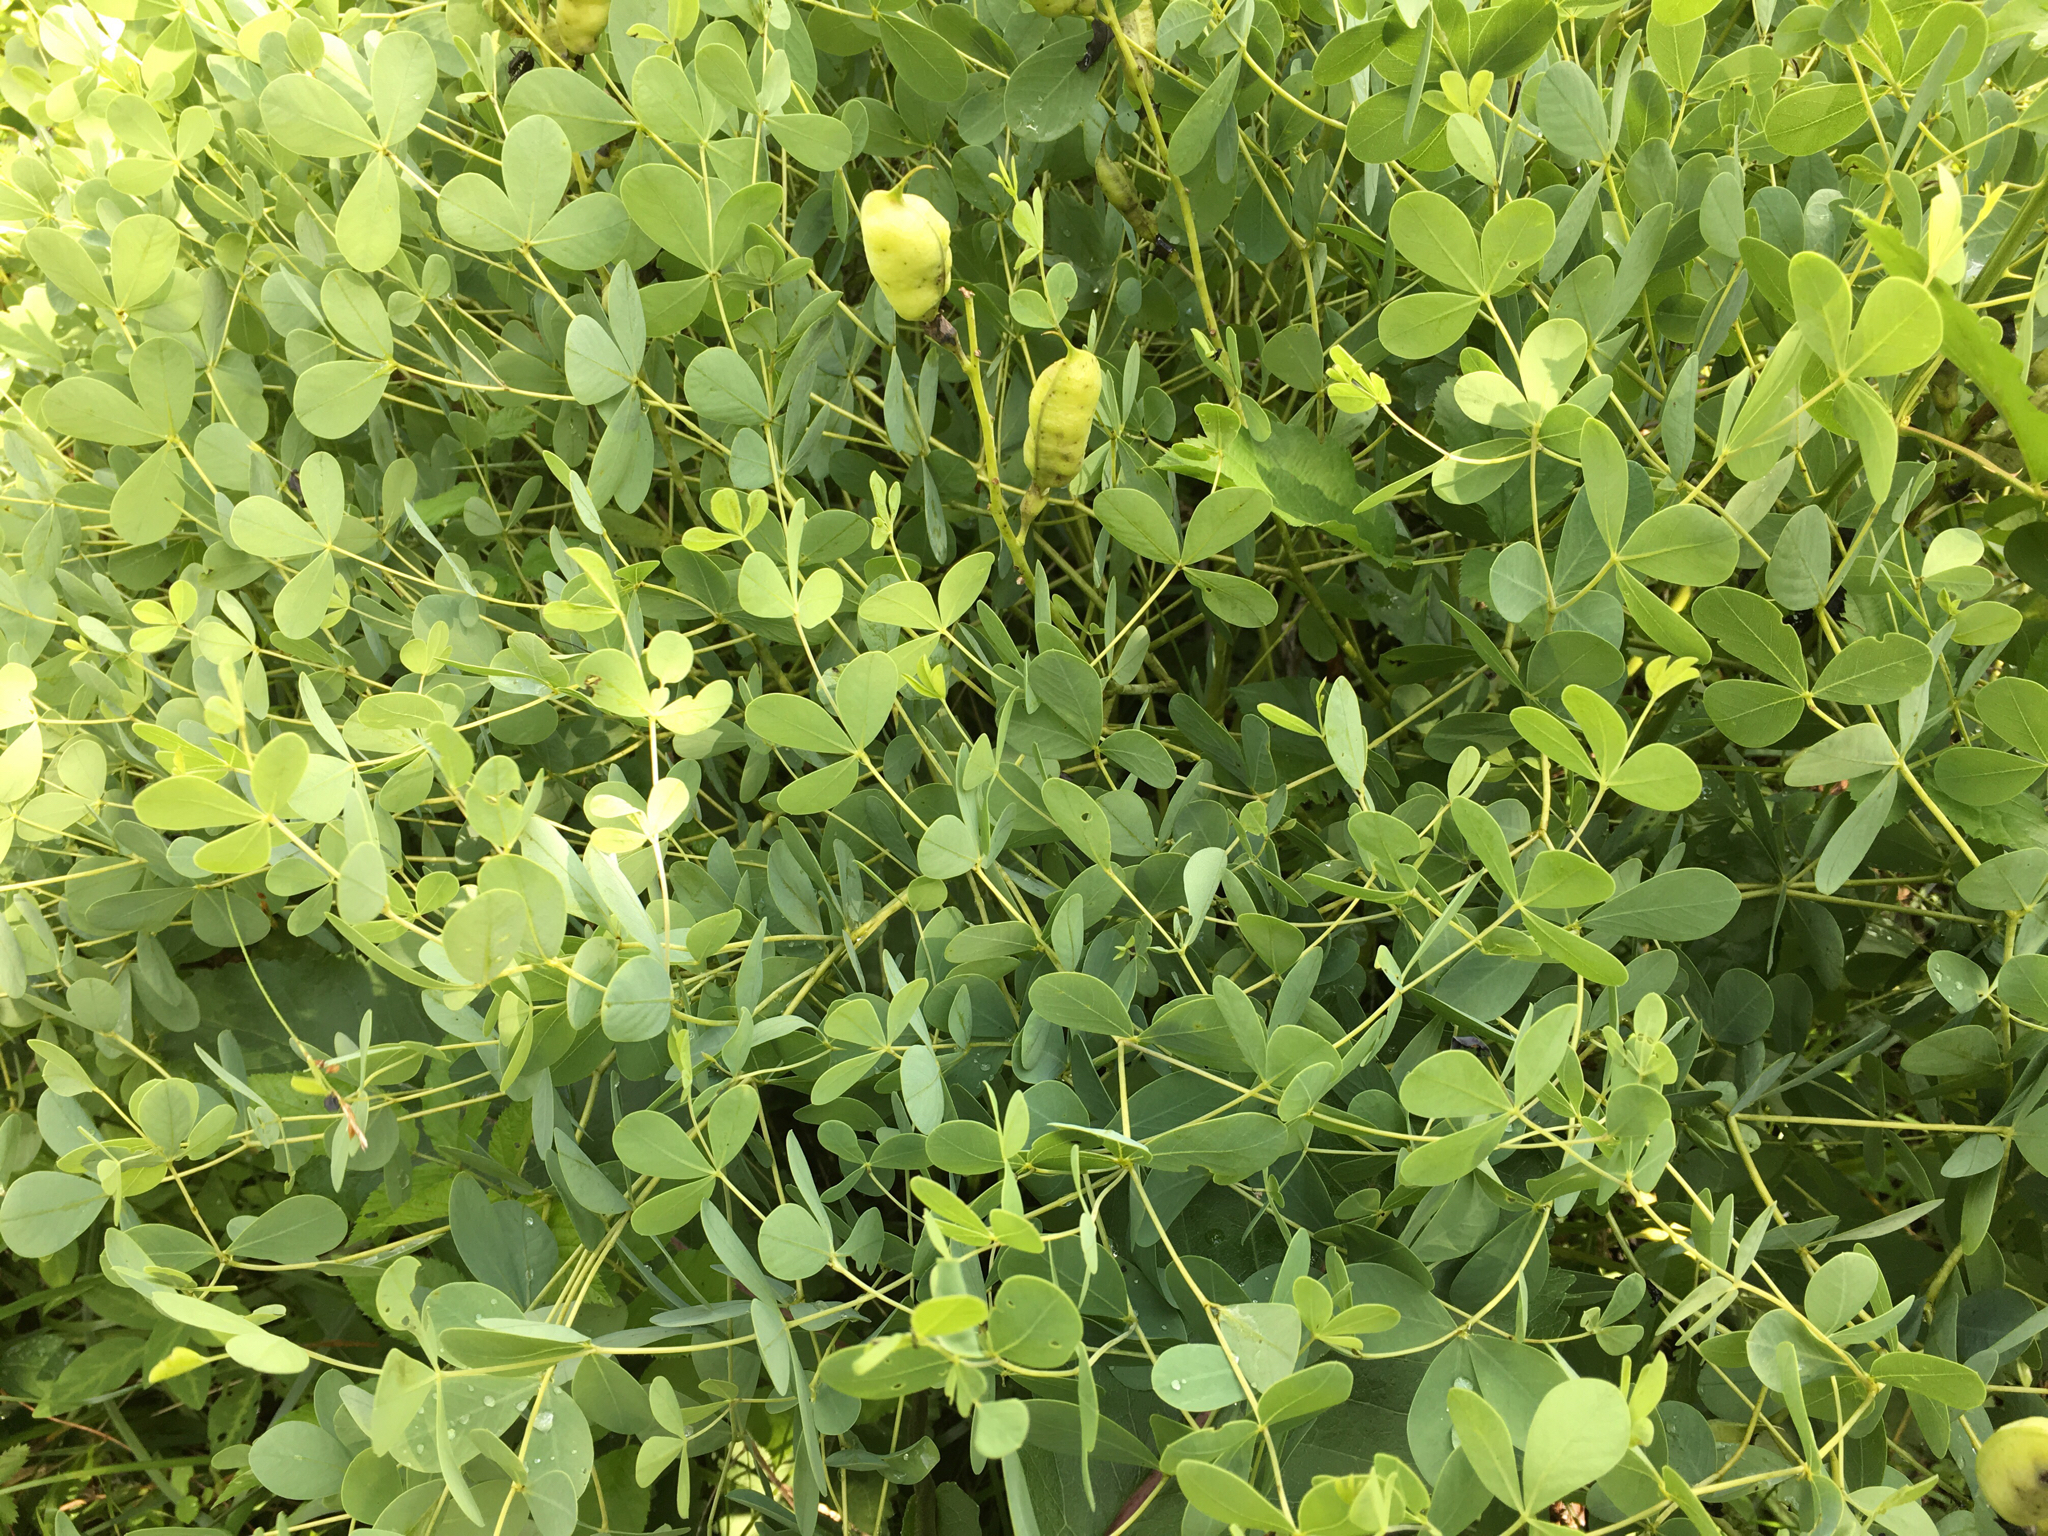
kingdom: Plantae
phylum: Tracheophyta
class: Magnoliopsida
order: Fabales
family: Fabaceae
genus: Baptisia
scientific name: Baptisia aberrans
